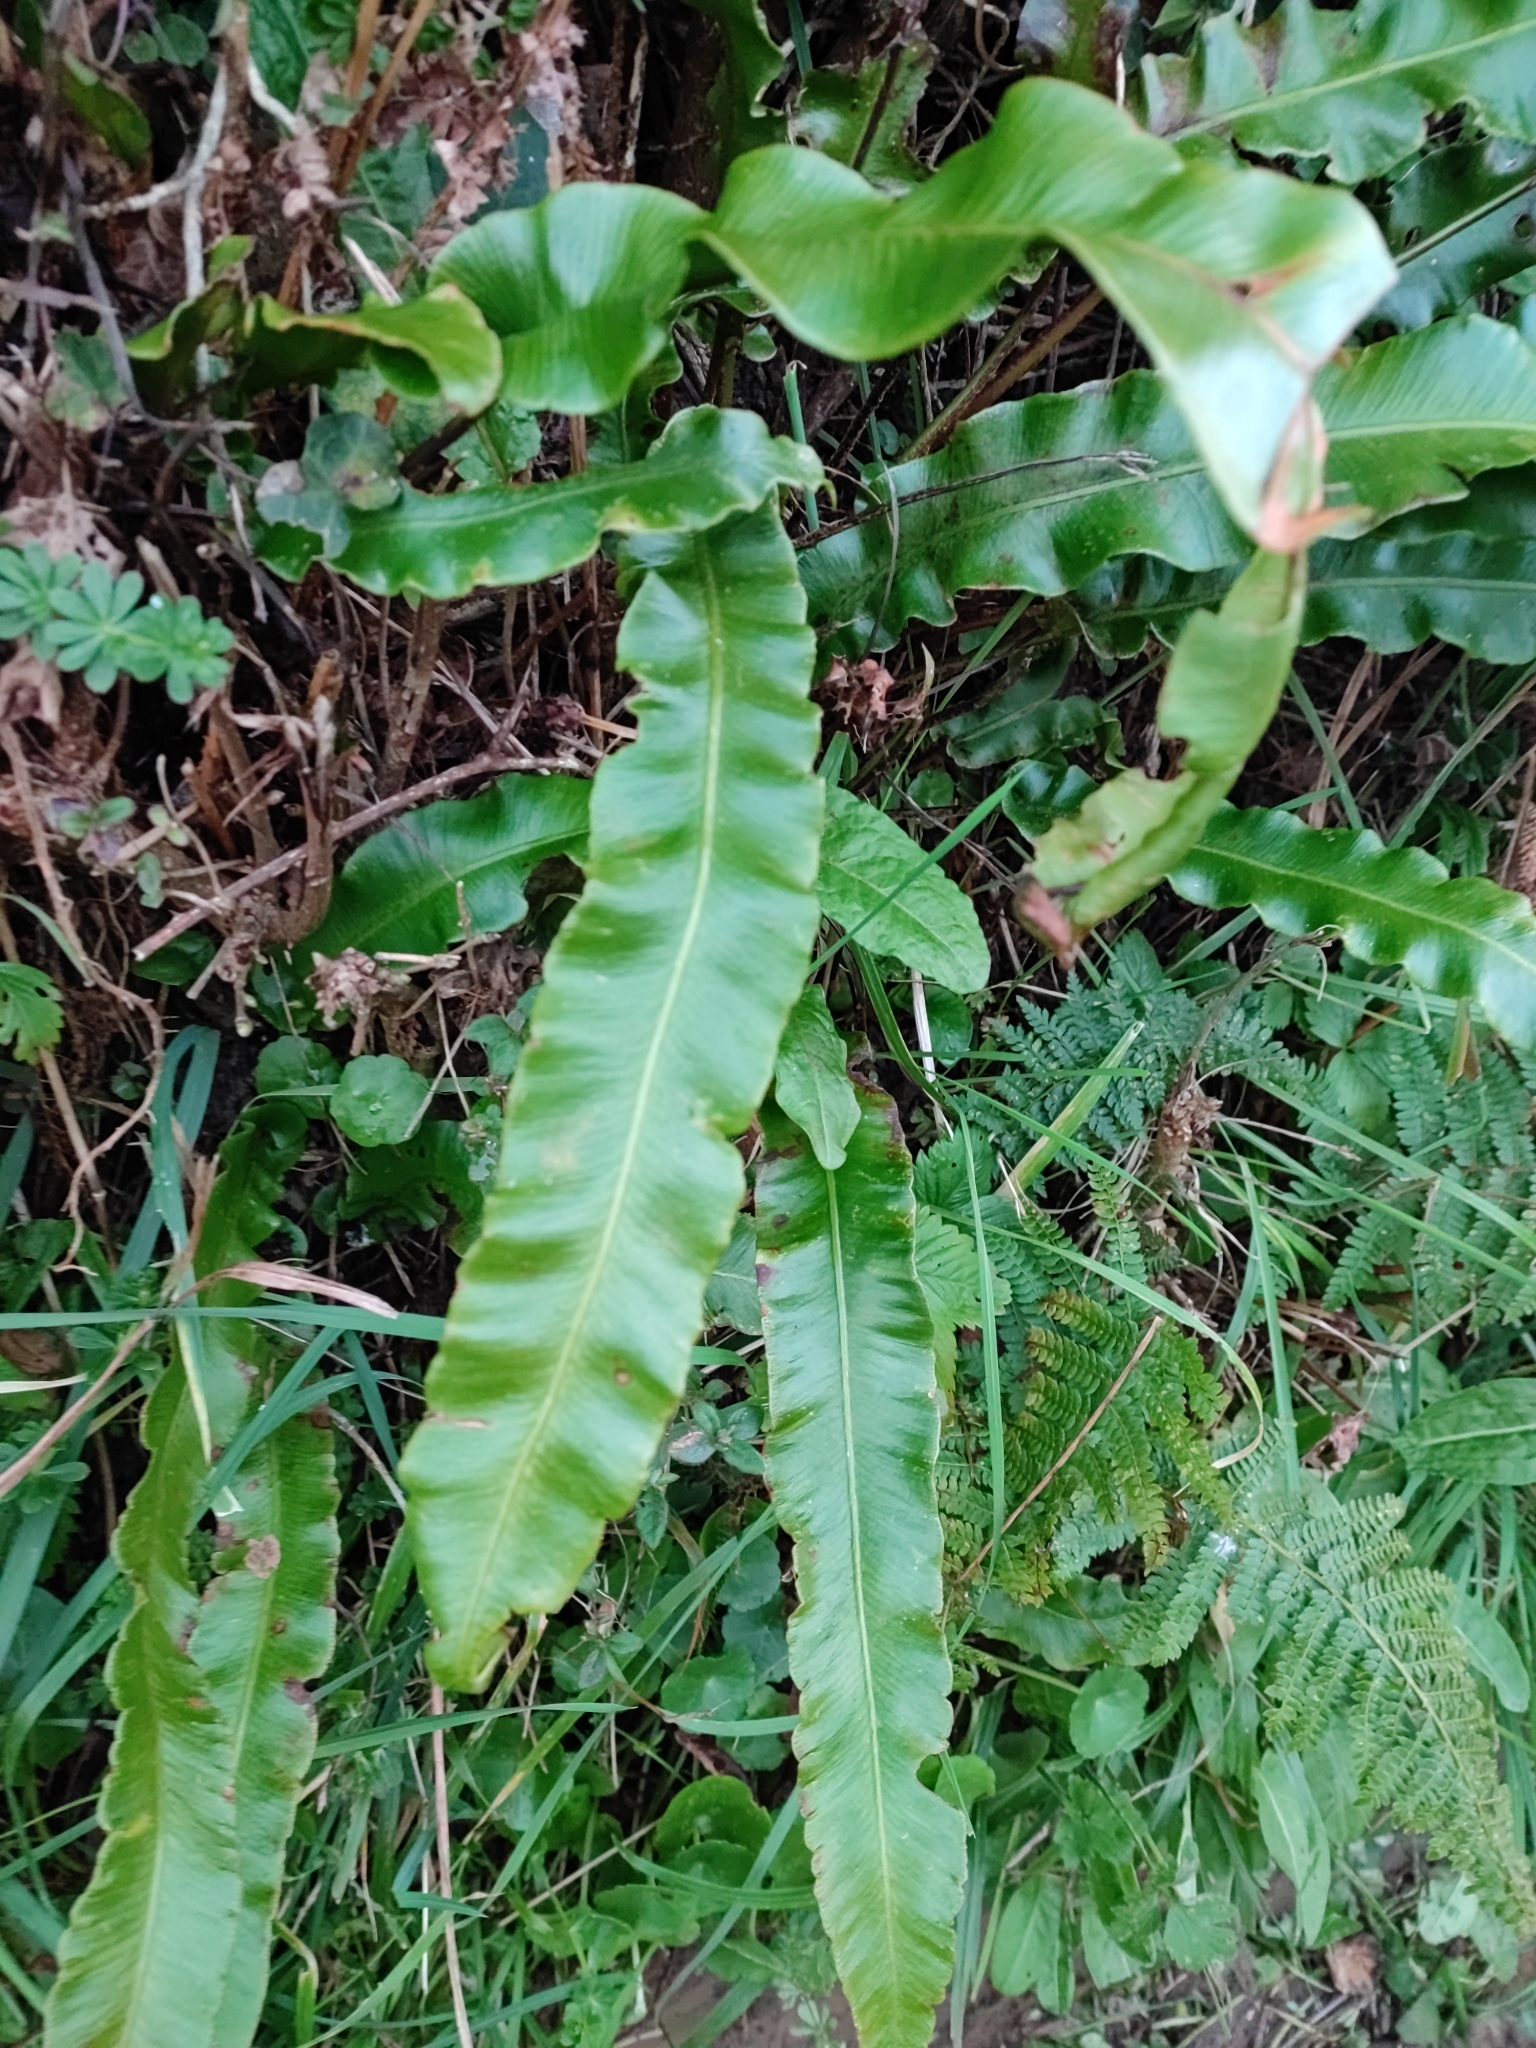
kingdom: Plantae
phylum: Tracheophyta
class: Polypodiopsida
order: Polypodiales
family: Aspleniaceae
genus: Asplenium
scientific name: Asplenium scolopendrium
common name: Hart's-tongue fern
